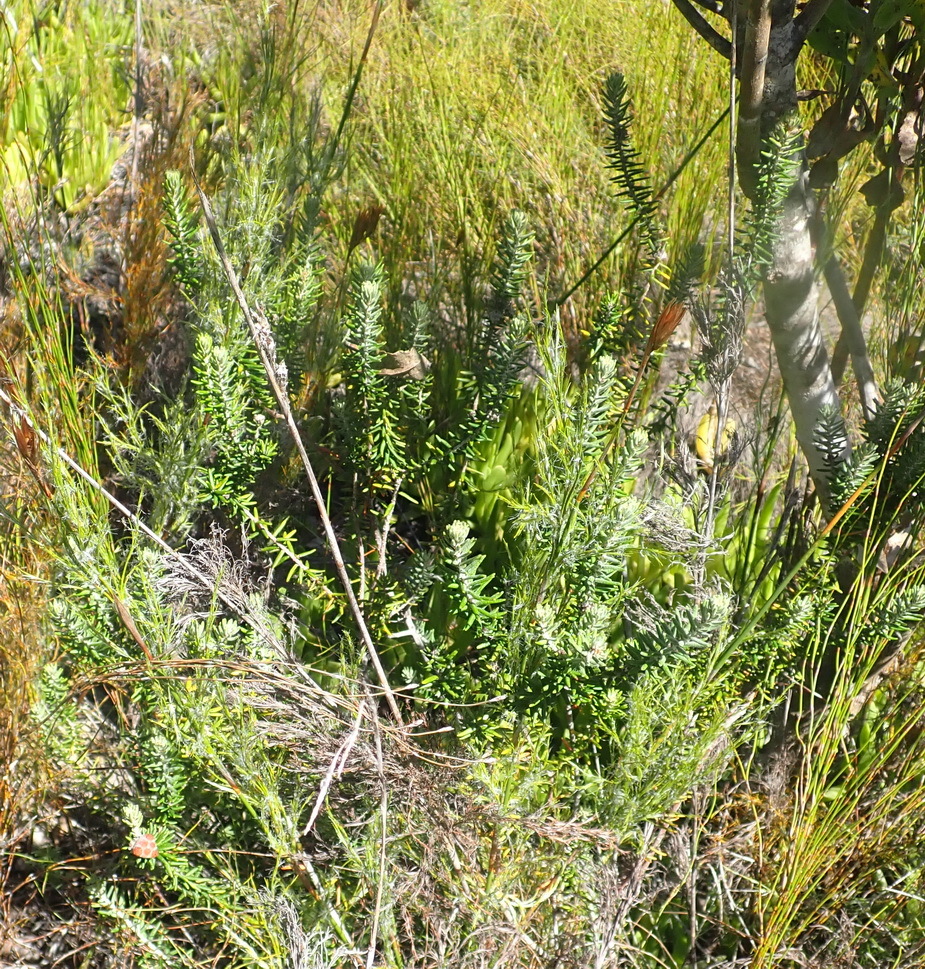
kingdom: Plantae
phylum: Tracheophyta
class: Magnoliopsida
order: Rosales
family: Rhamnaceae
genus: Trichocephalus
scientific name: Trichocephalus stipularis
